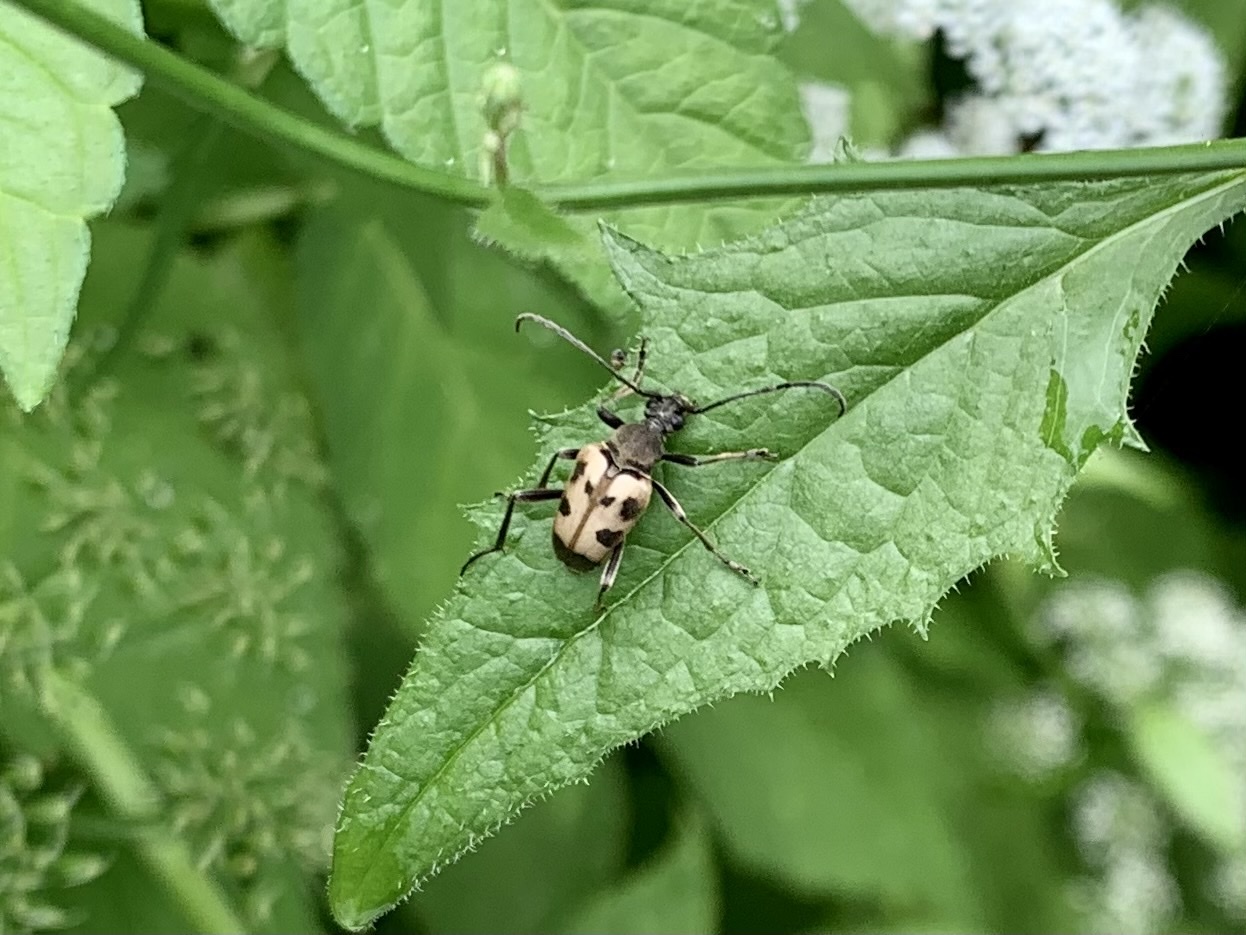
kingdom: Animalia
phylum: Arthropoda
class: Insecta
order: Coleoptera
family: Cerambycidae
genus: Pachytodes
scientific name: Pachytodes cerambyciformis
